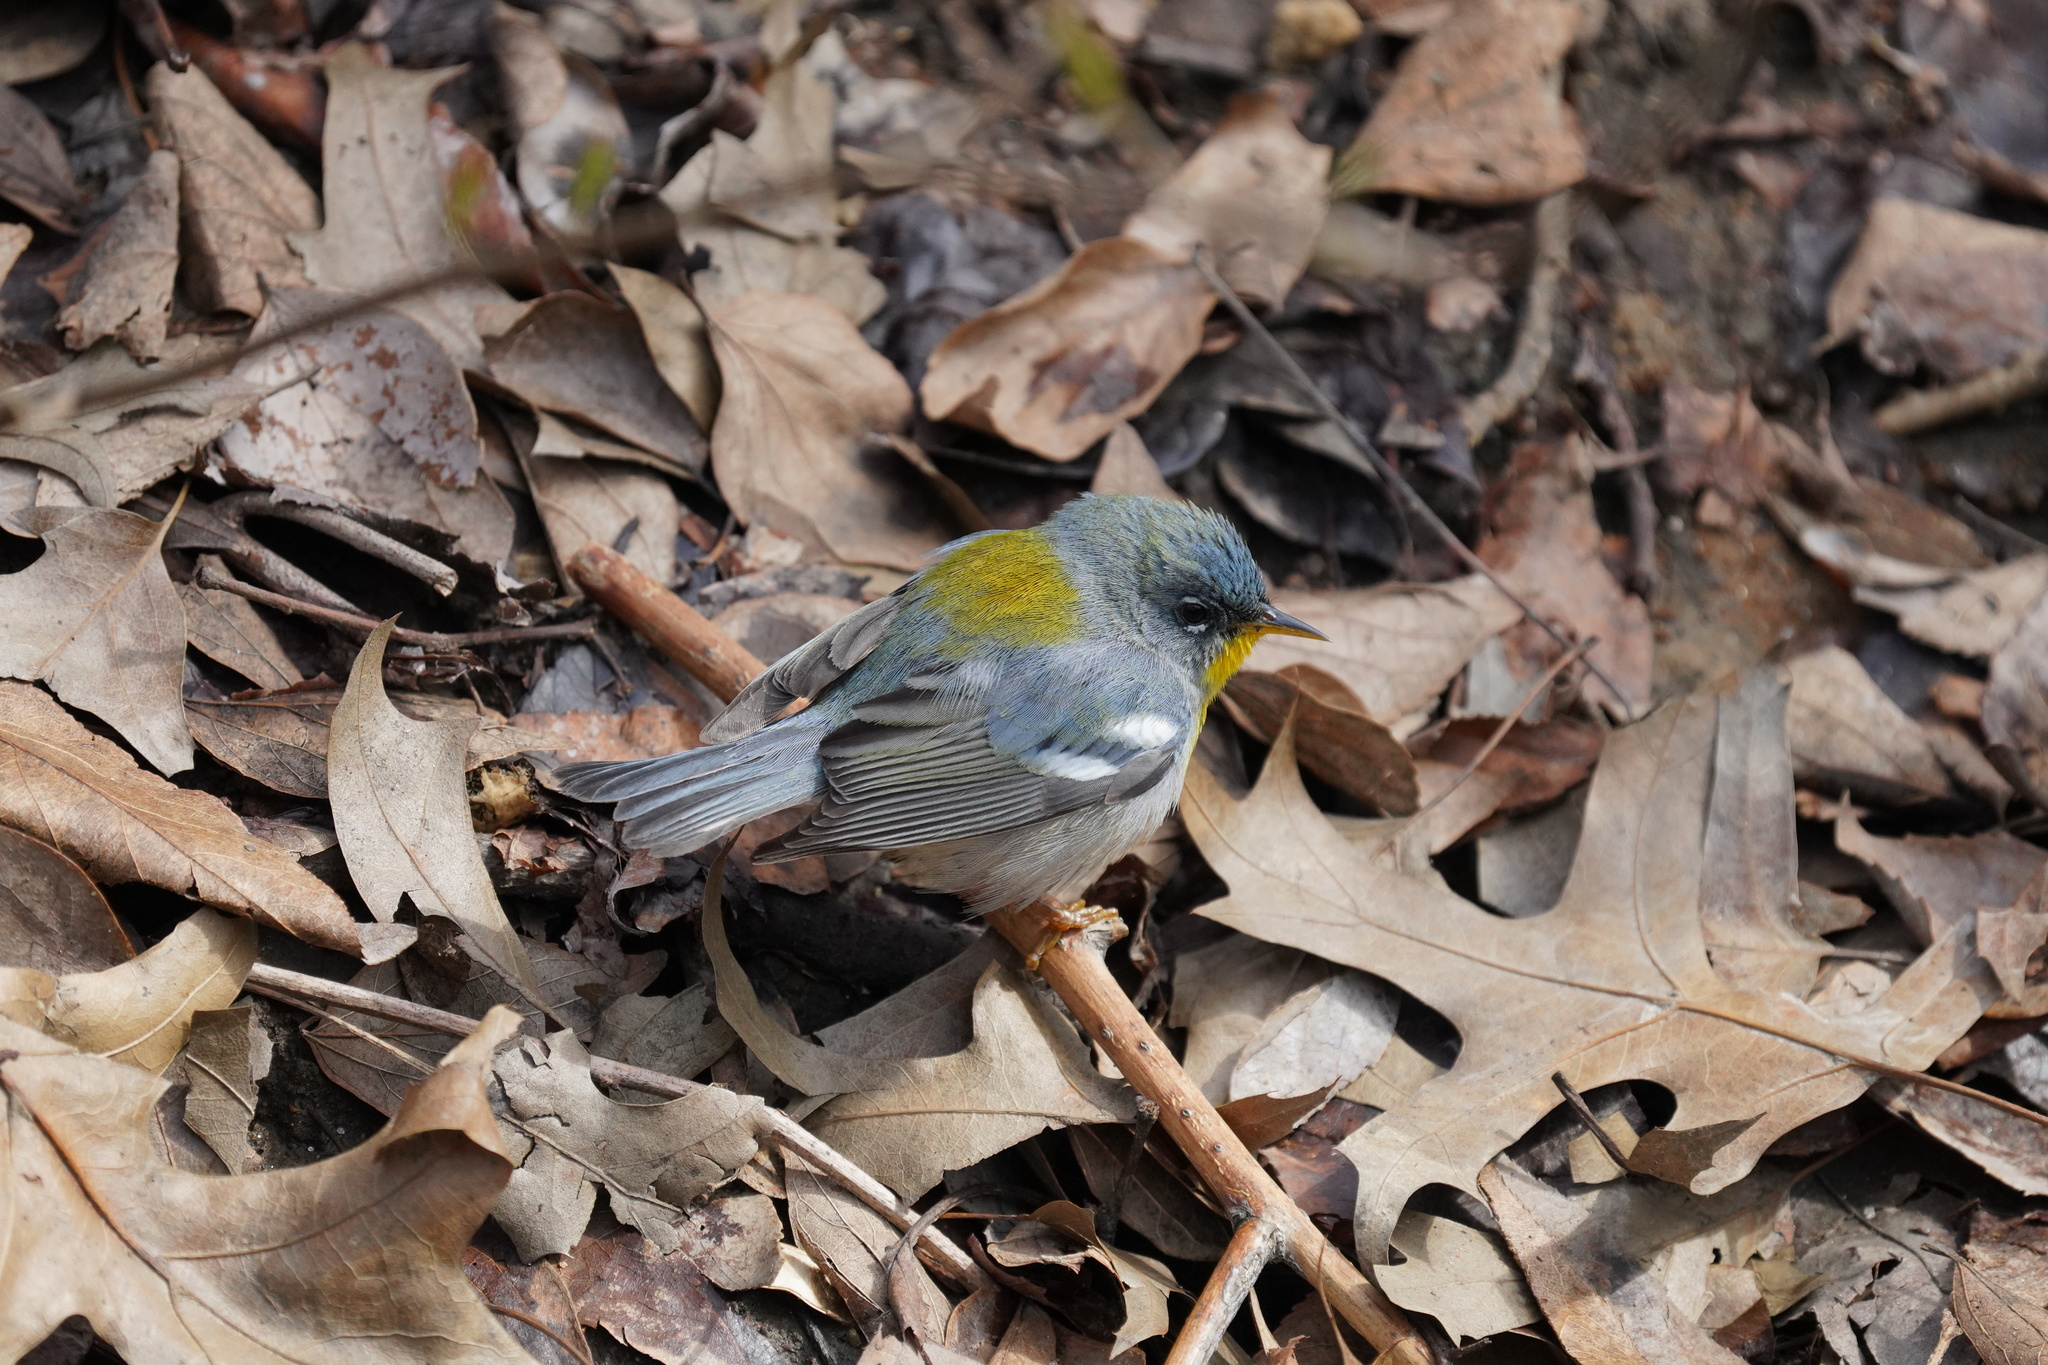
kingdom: Animalia
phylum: Chordata
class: Aves
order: Passeriformes
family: Parulidae
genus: Setophaga
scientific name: Setophaga americana
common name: Northern parula
